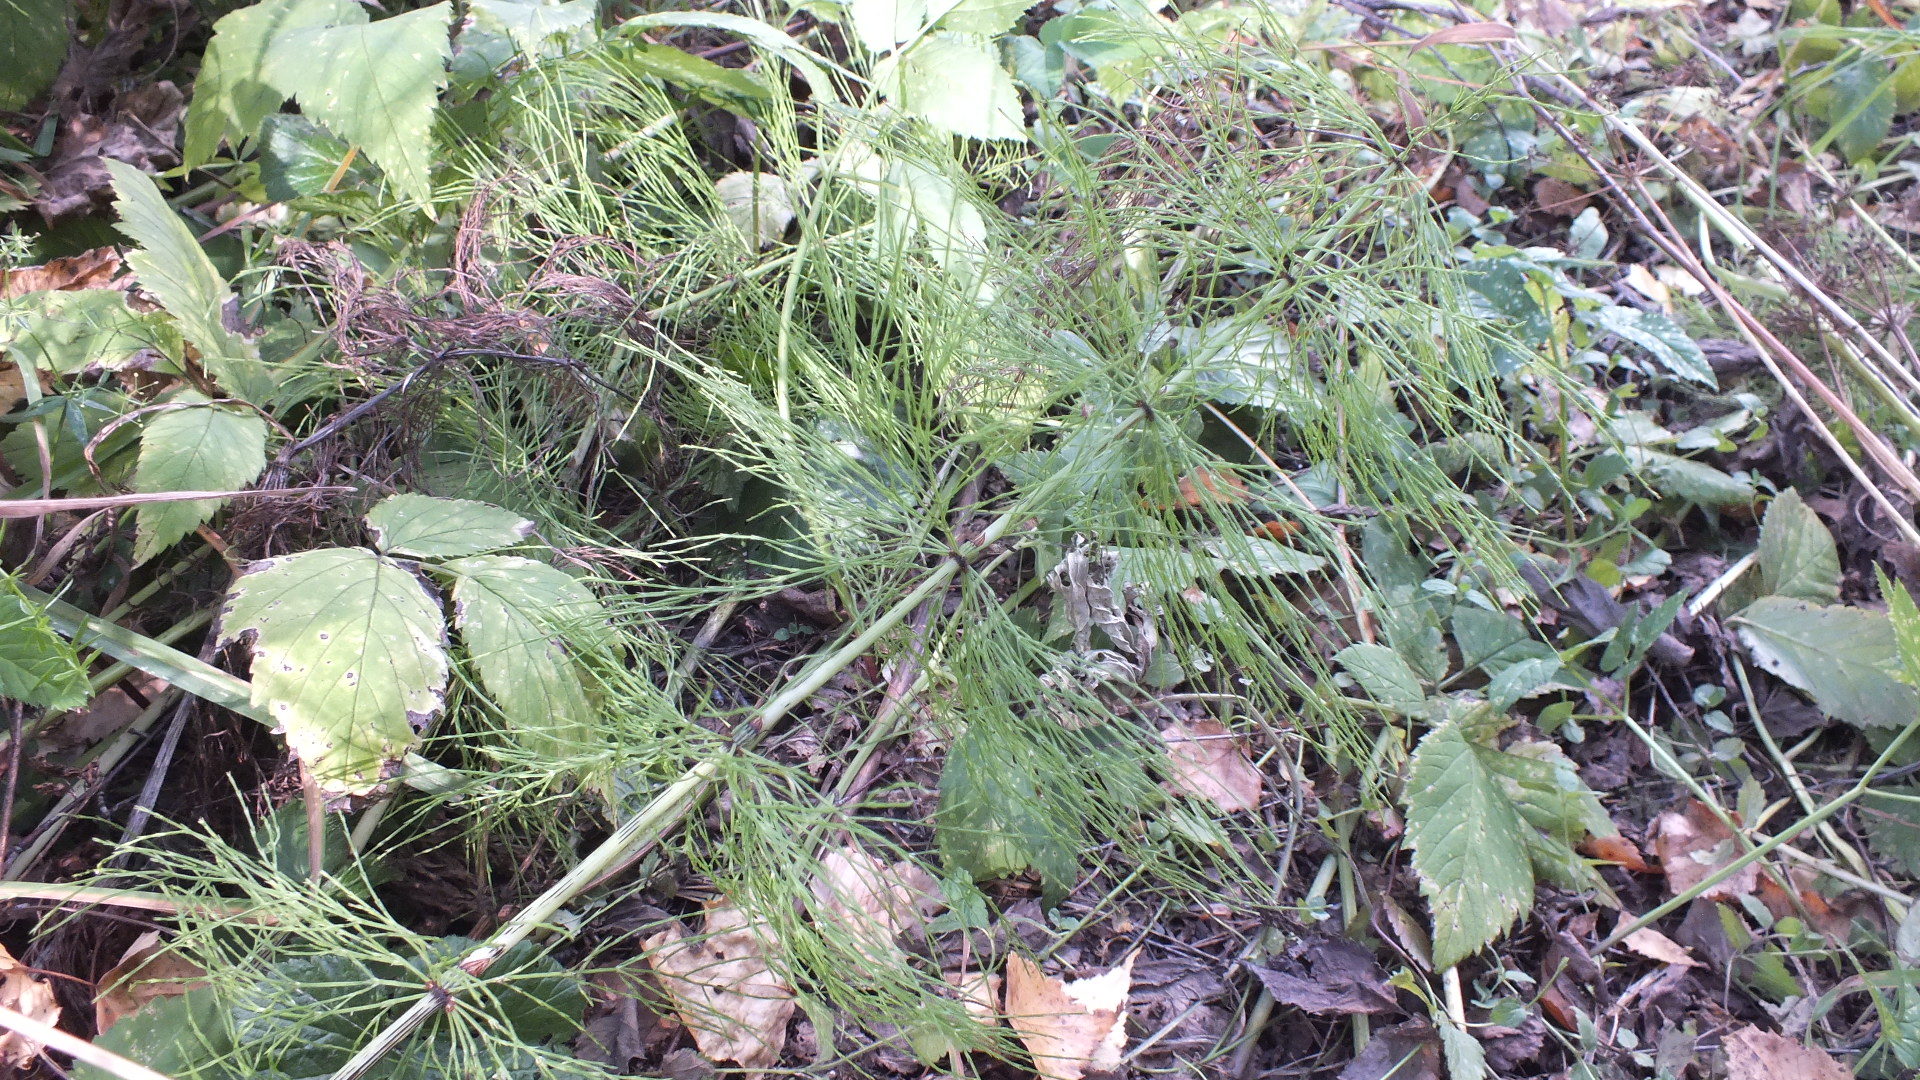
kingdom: Plantae
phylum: Tracheophyta
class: Polypodiopsida
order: Equisetales
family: Equisetaceae
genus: Equisetum
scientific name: Equisetum sylvaticum
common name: Wood horsetail
